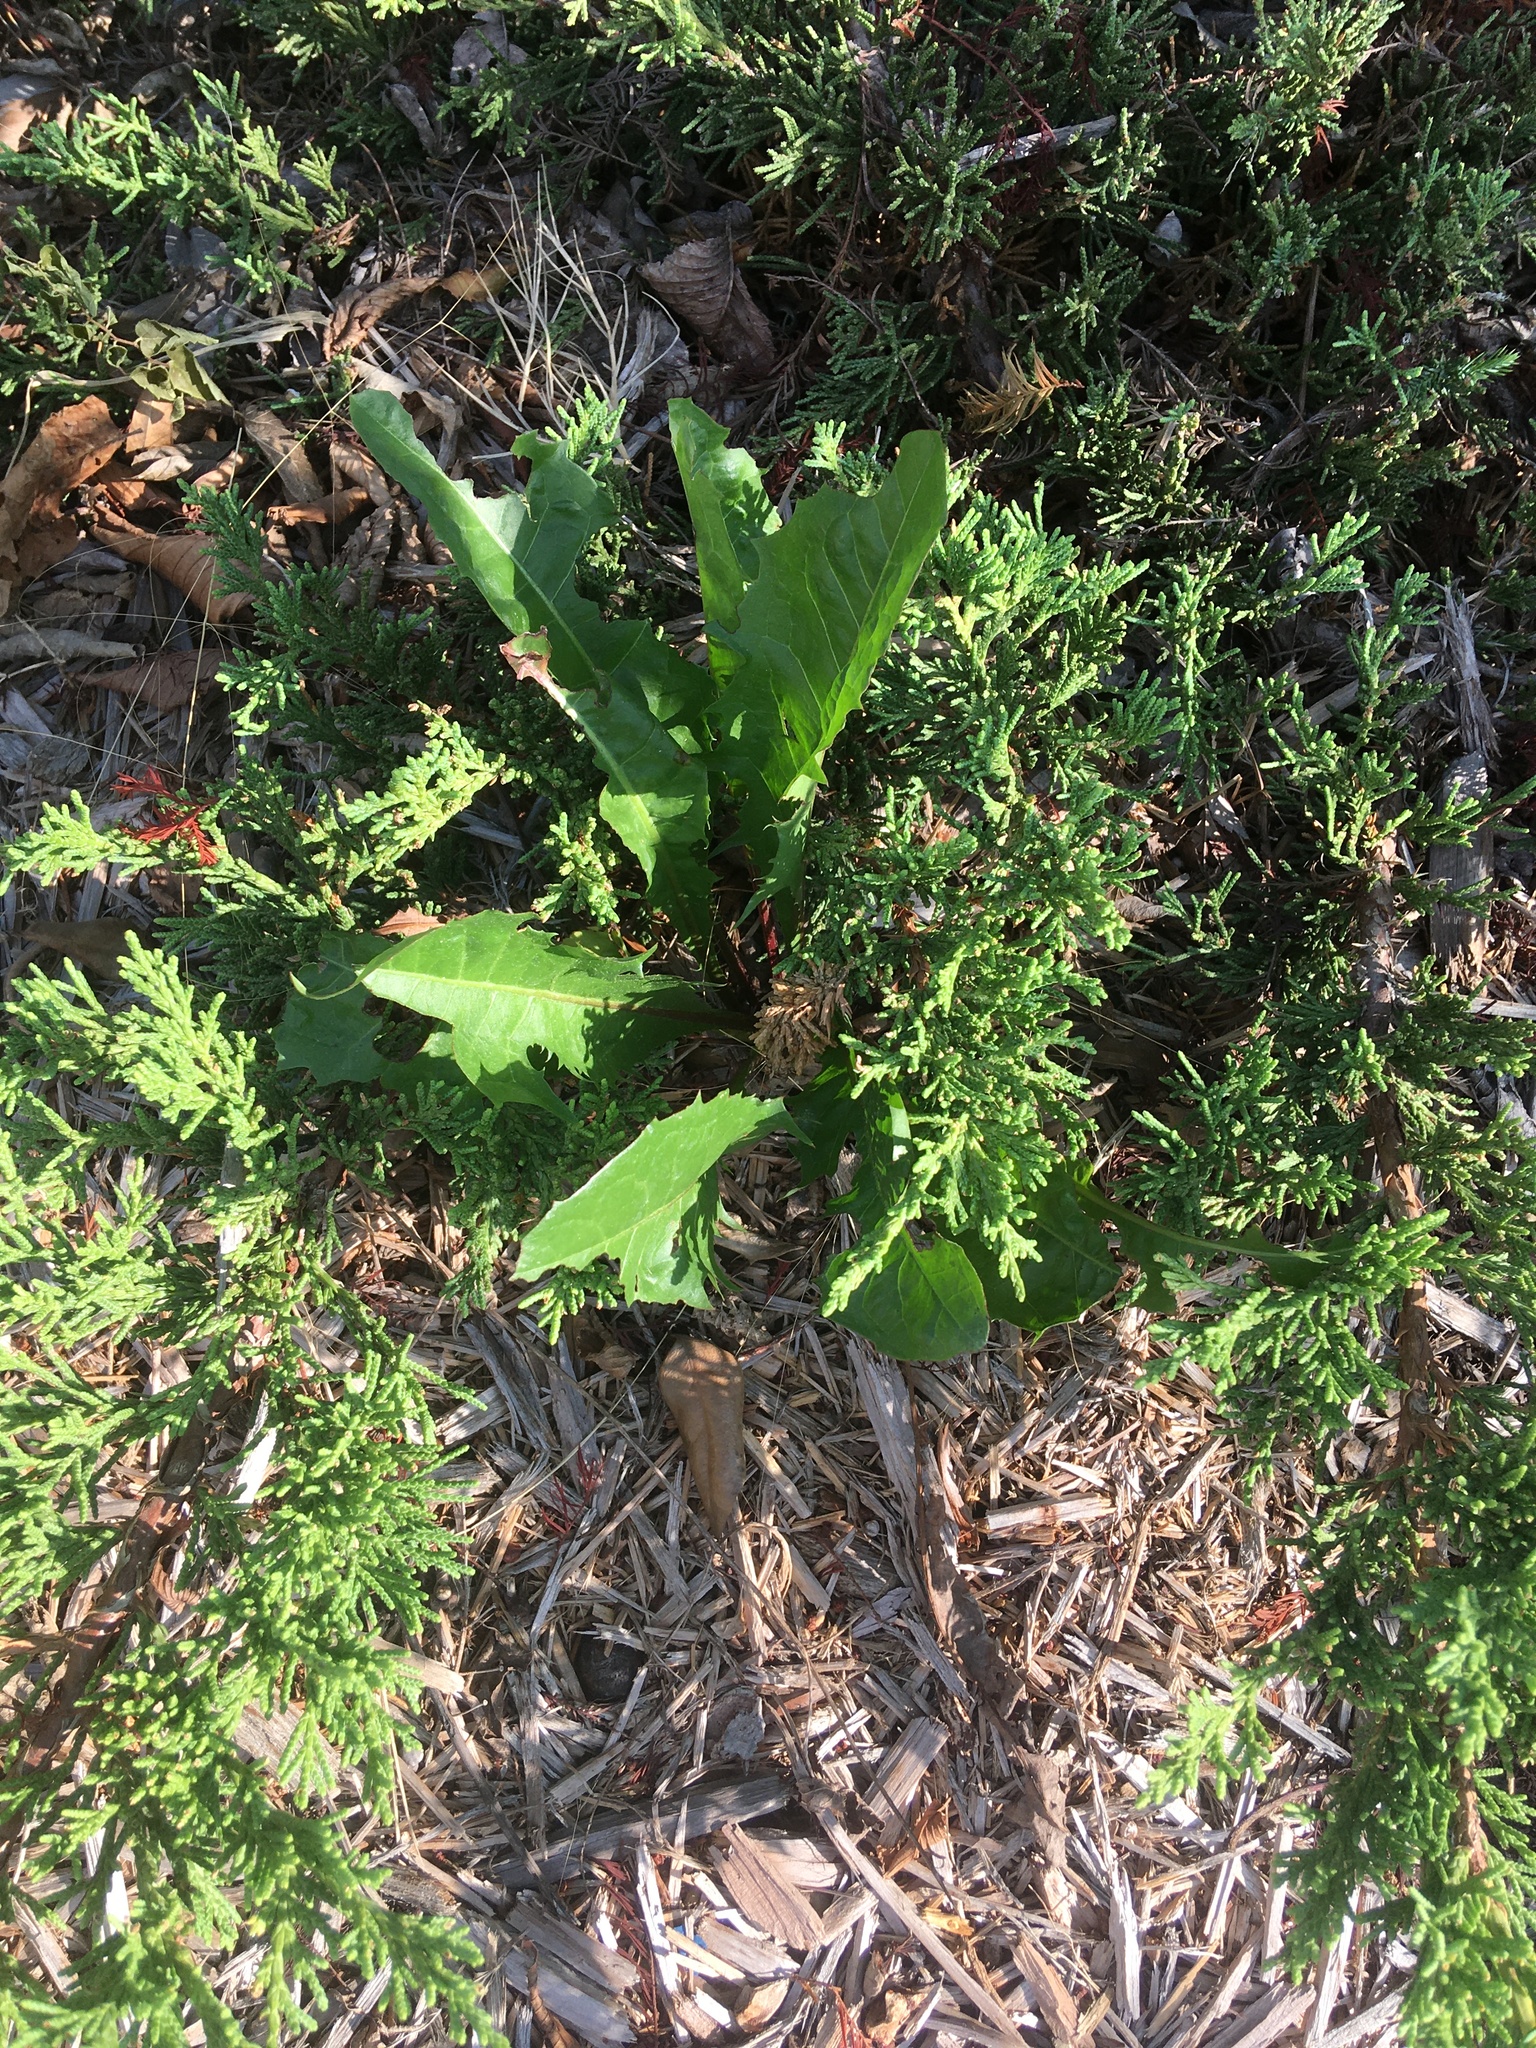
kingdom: Plantae
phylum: Tracheophyta
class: Magnoliopsida
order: Asterales
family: Asteraceae
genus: Taraxacum
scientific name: Taraxacum officinale
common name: Common dandelion
